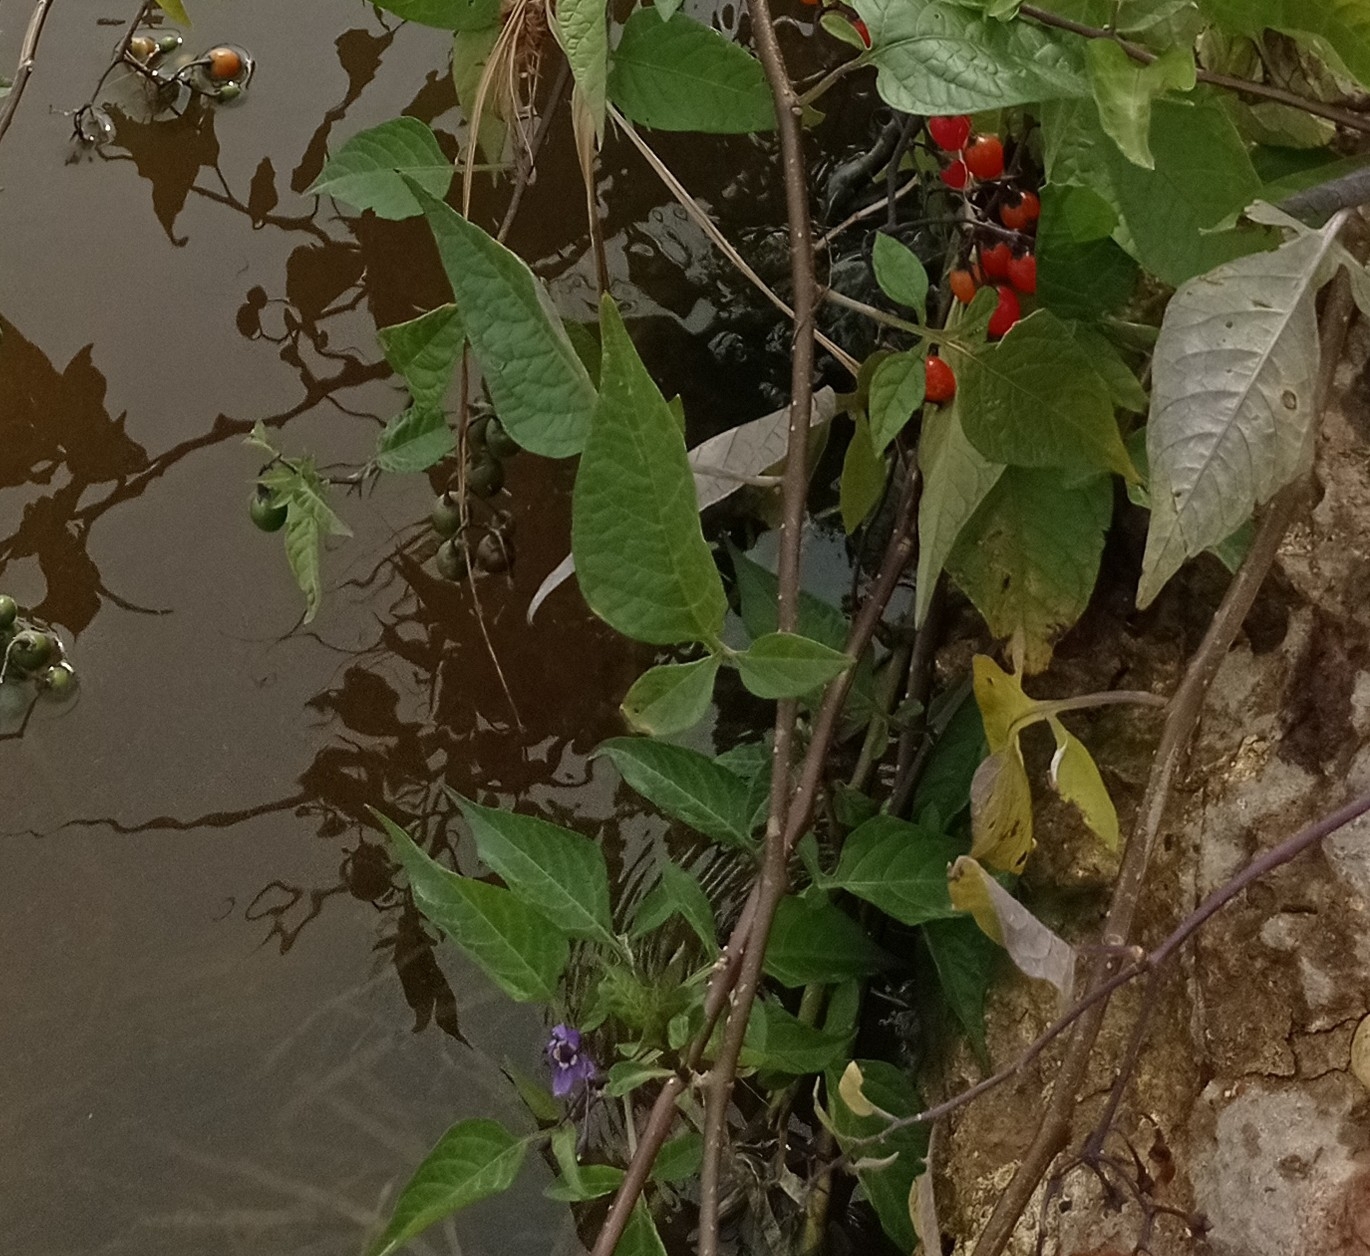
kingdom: Plantae
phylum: Tracheophyta
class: Magnoliopsida
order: Solanales
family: Solanaceae
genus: Solanum
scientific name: Solanum dulcamara
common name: Climbing nightshade
